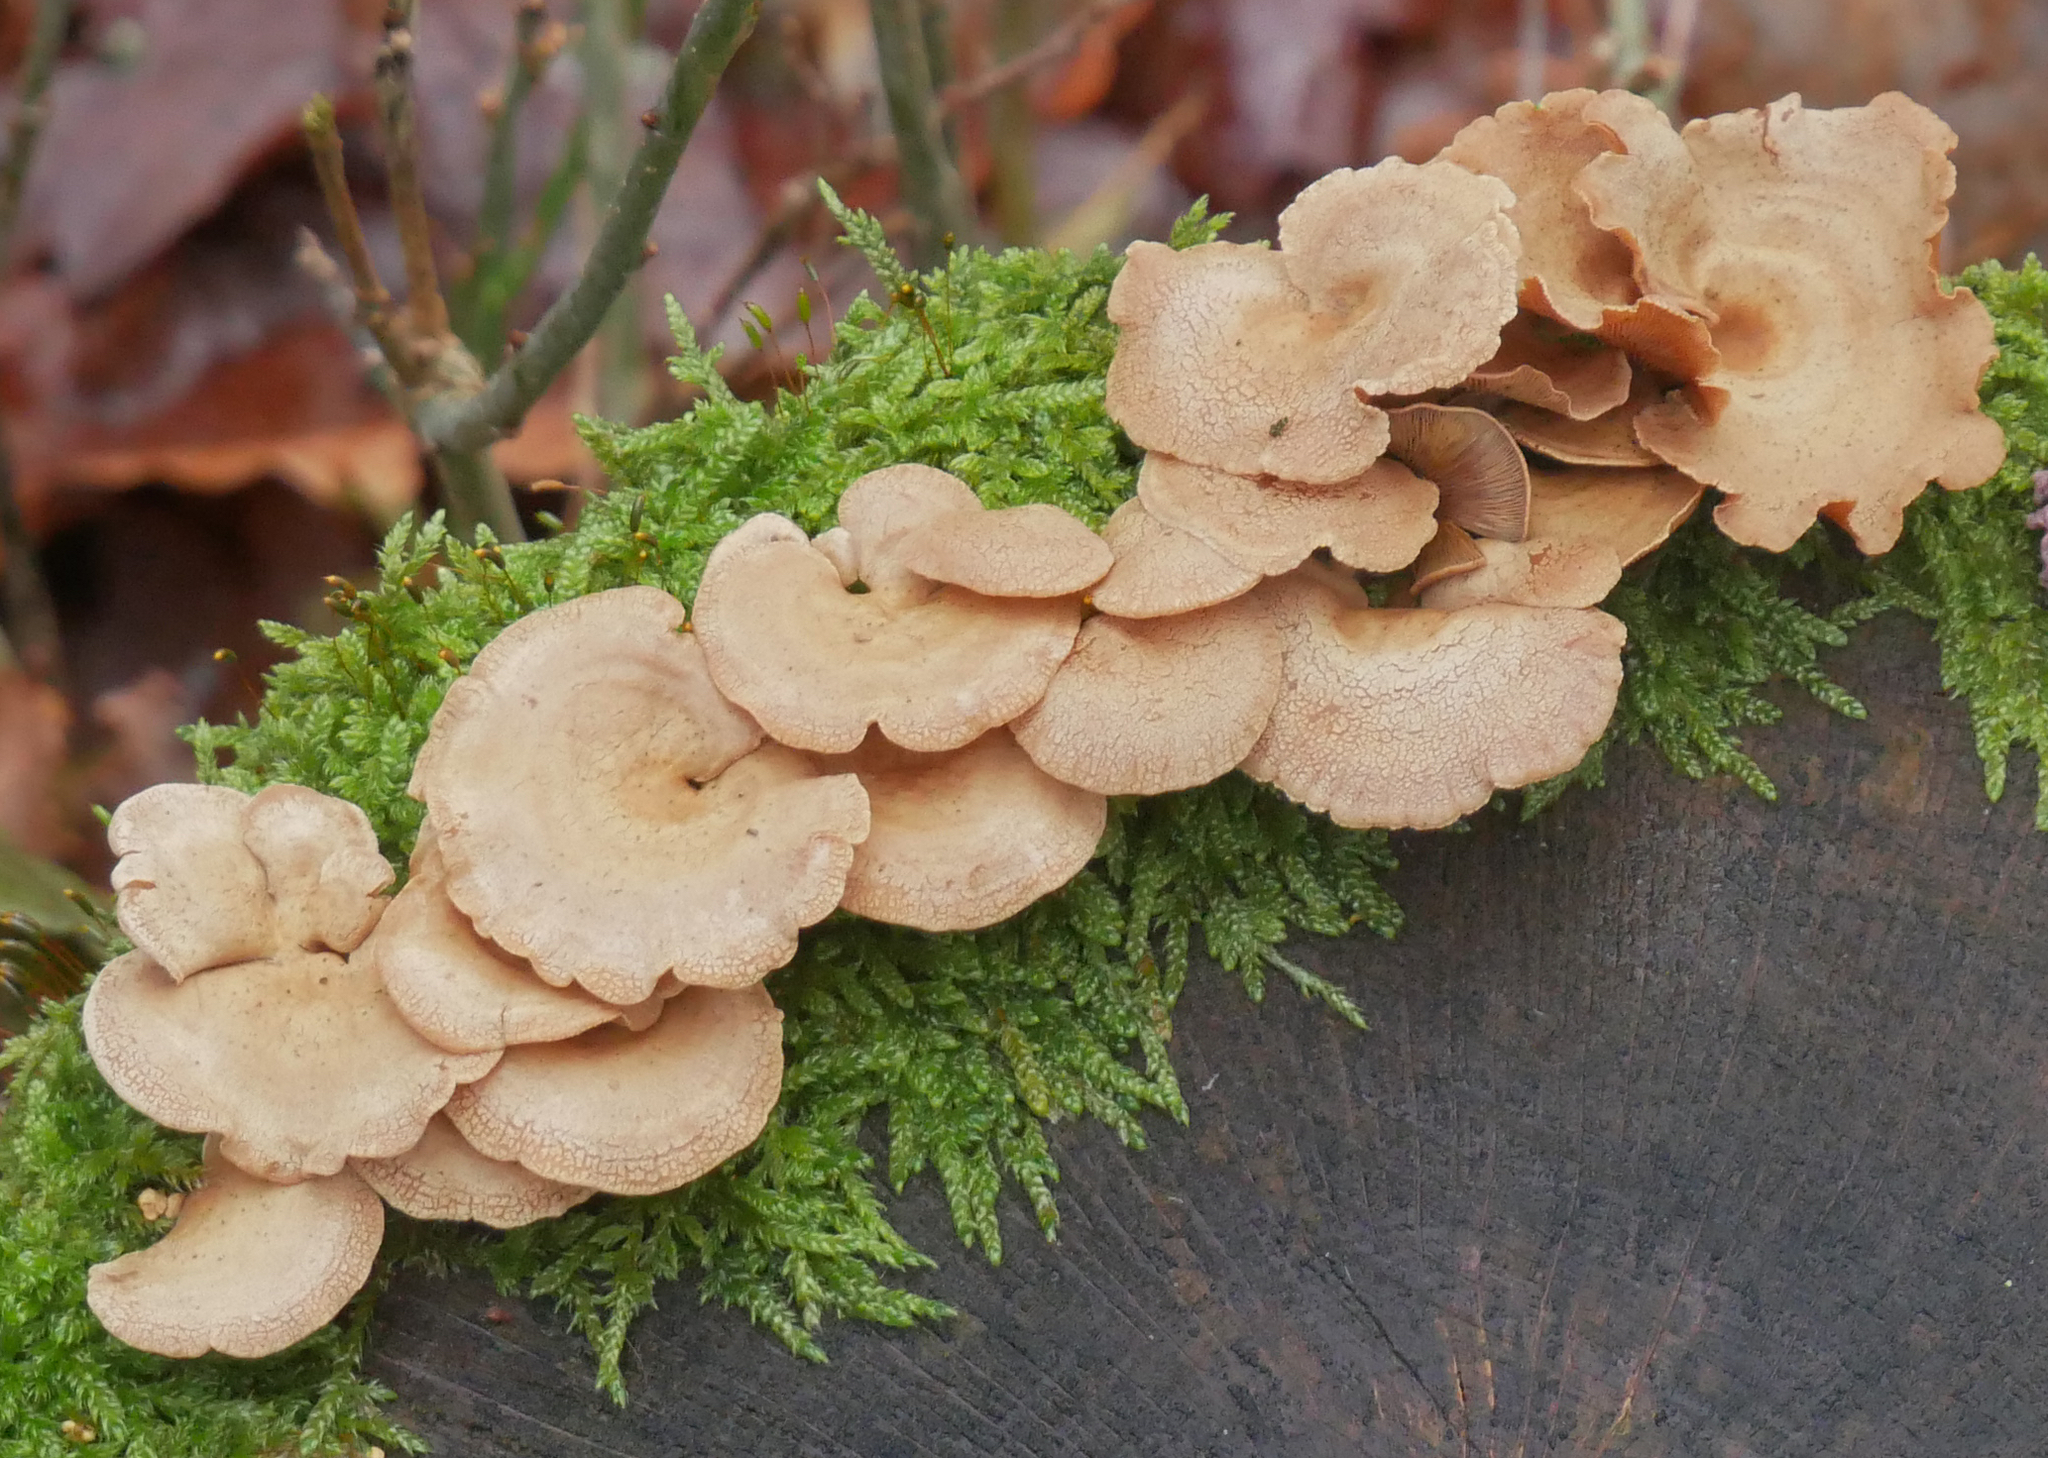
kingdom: Fungi
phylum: Basidiomycota
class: Agaricomycetes
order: Agaricales
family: Mycenaceae
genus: Panellus
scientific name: Panellus stipticus
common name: Bitter oysterling
